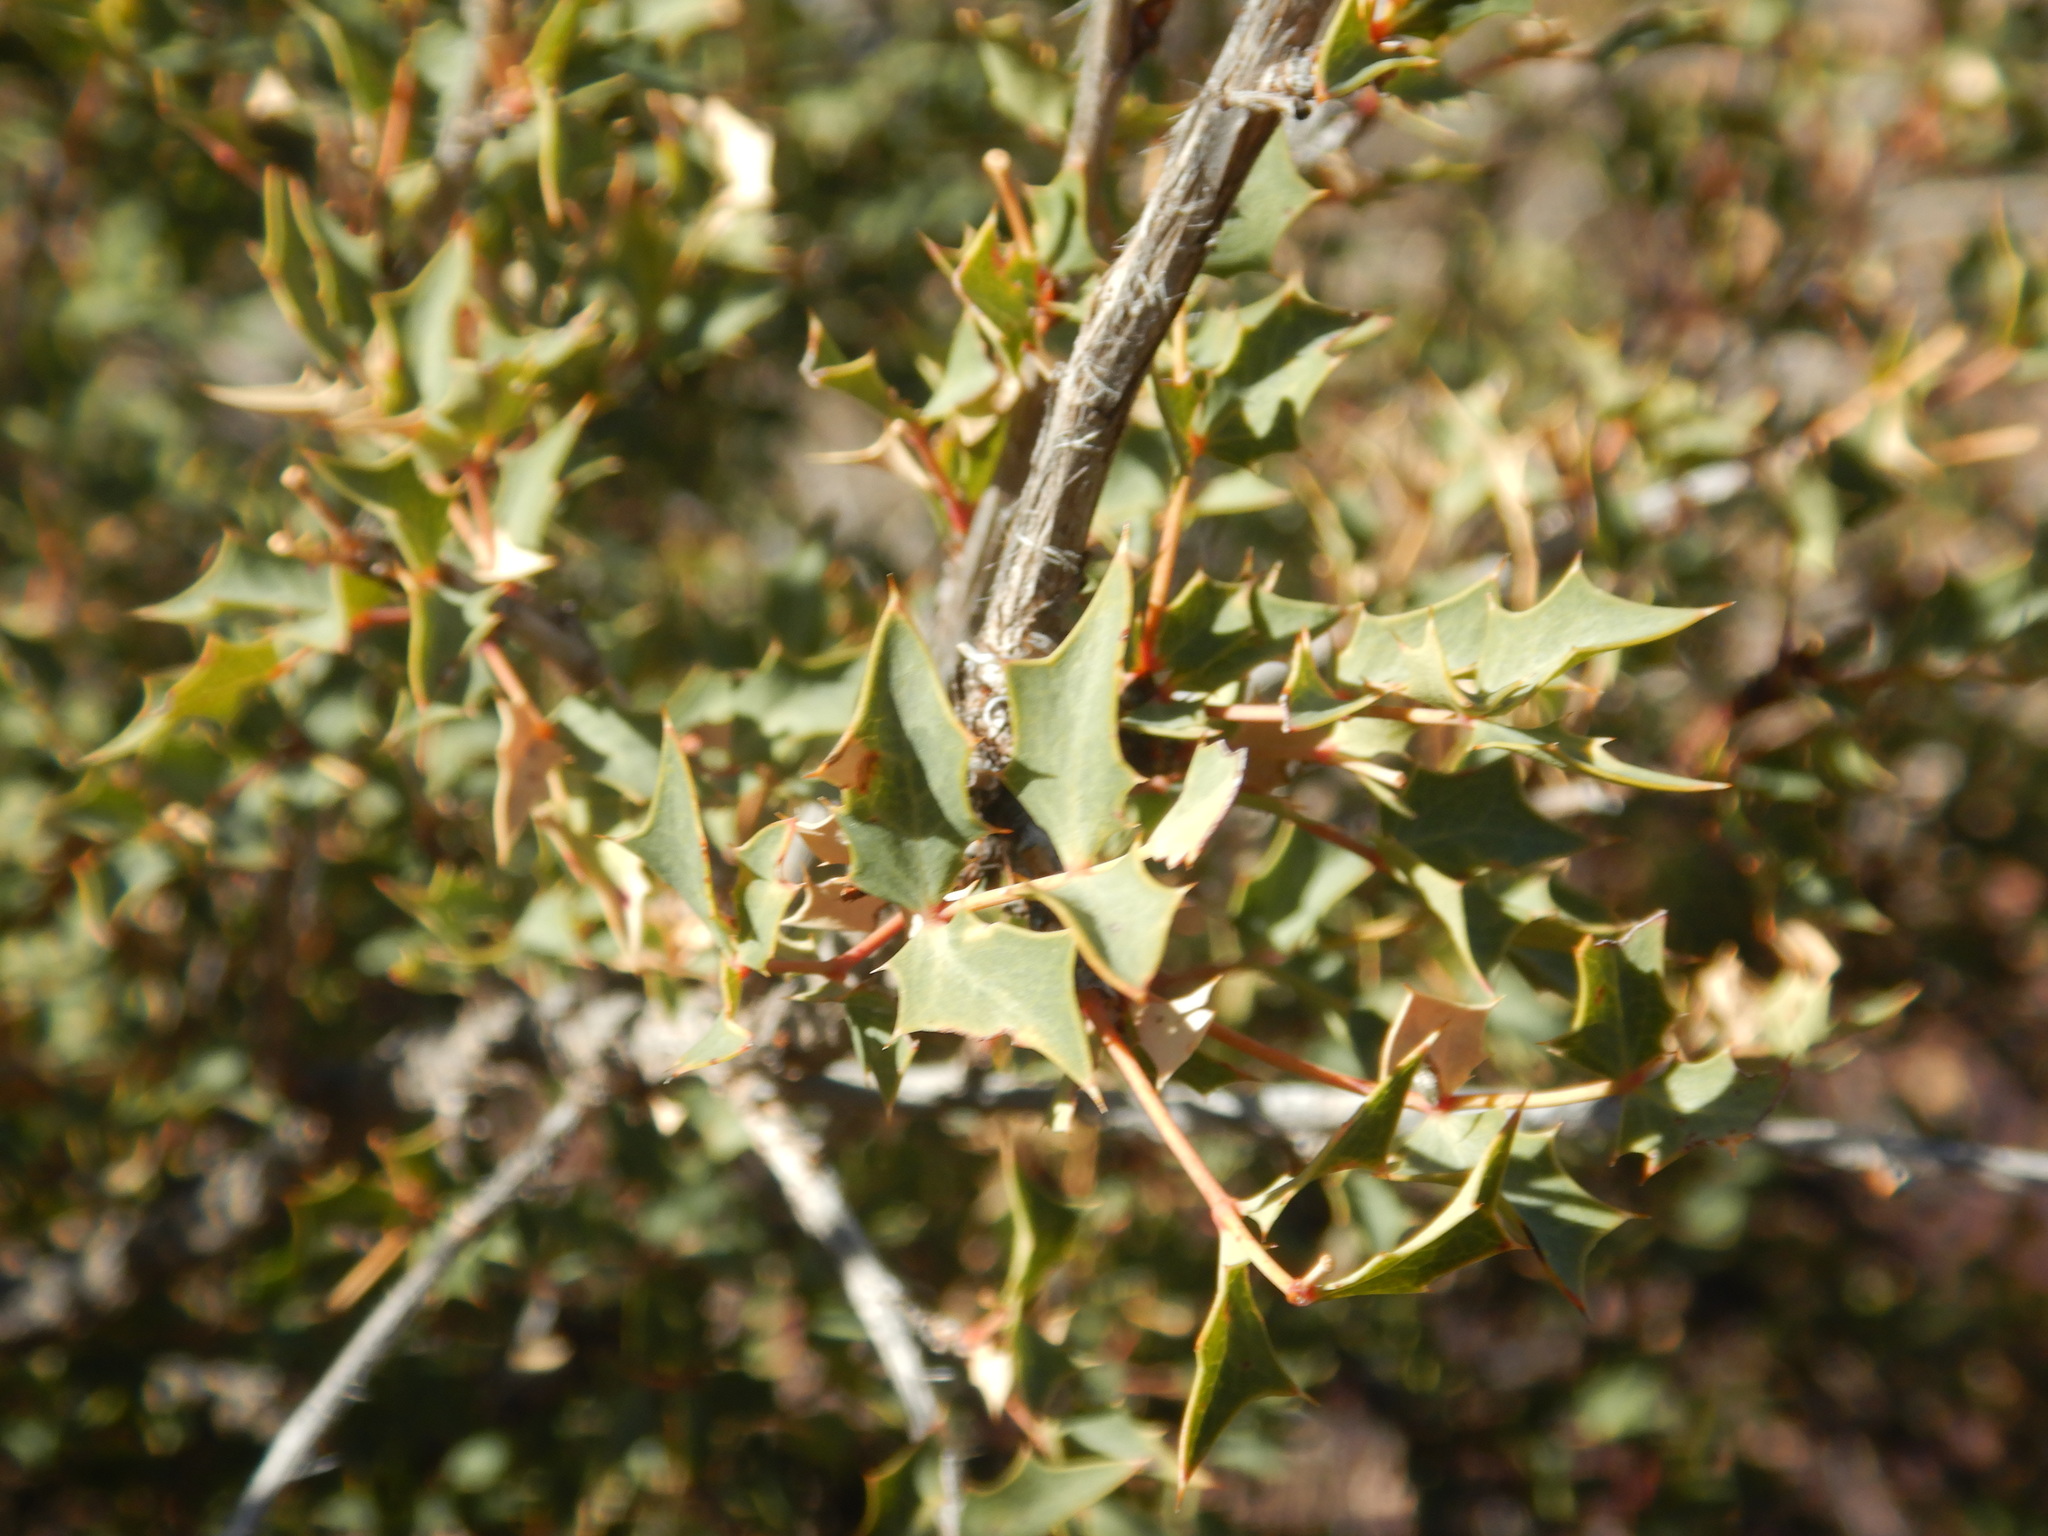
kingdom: Plantae
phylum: Tracheophyta
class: Magnoliopsida
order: Ranunculales
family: Berberidaceae
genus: Alloberberis
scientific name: Alloberberis fremontii
